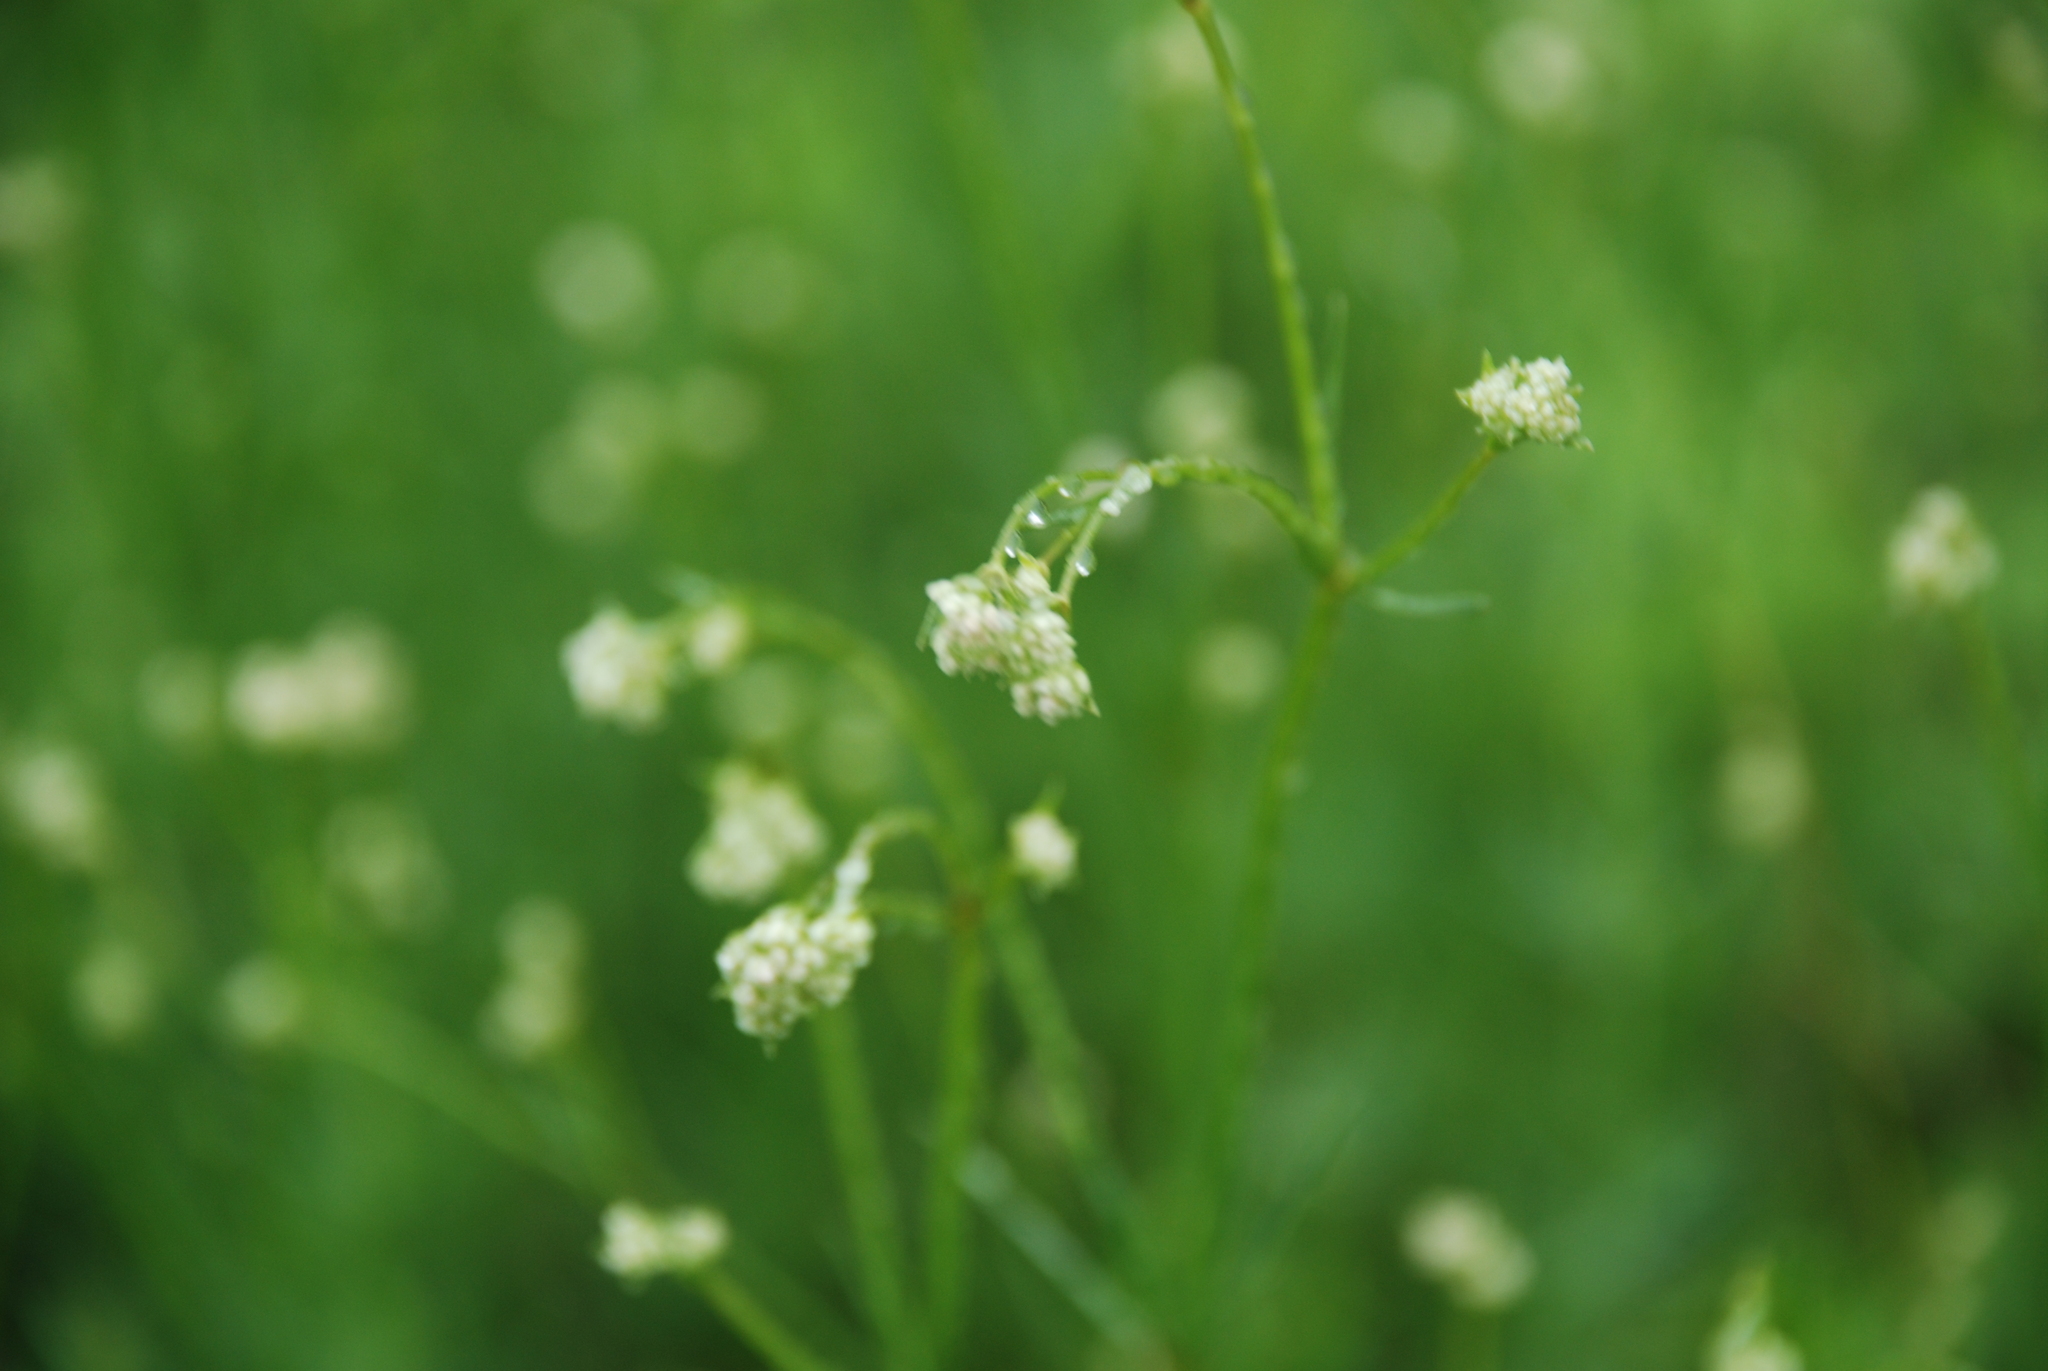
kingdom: Plantae
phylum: Tracheophyta
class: Magnoliopsida
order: Gentianales
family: Rubiaceae
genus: Asperula
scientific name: Asperula tinctoria
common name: Dyer's woodruff
